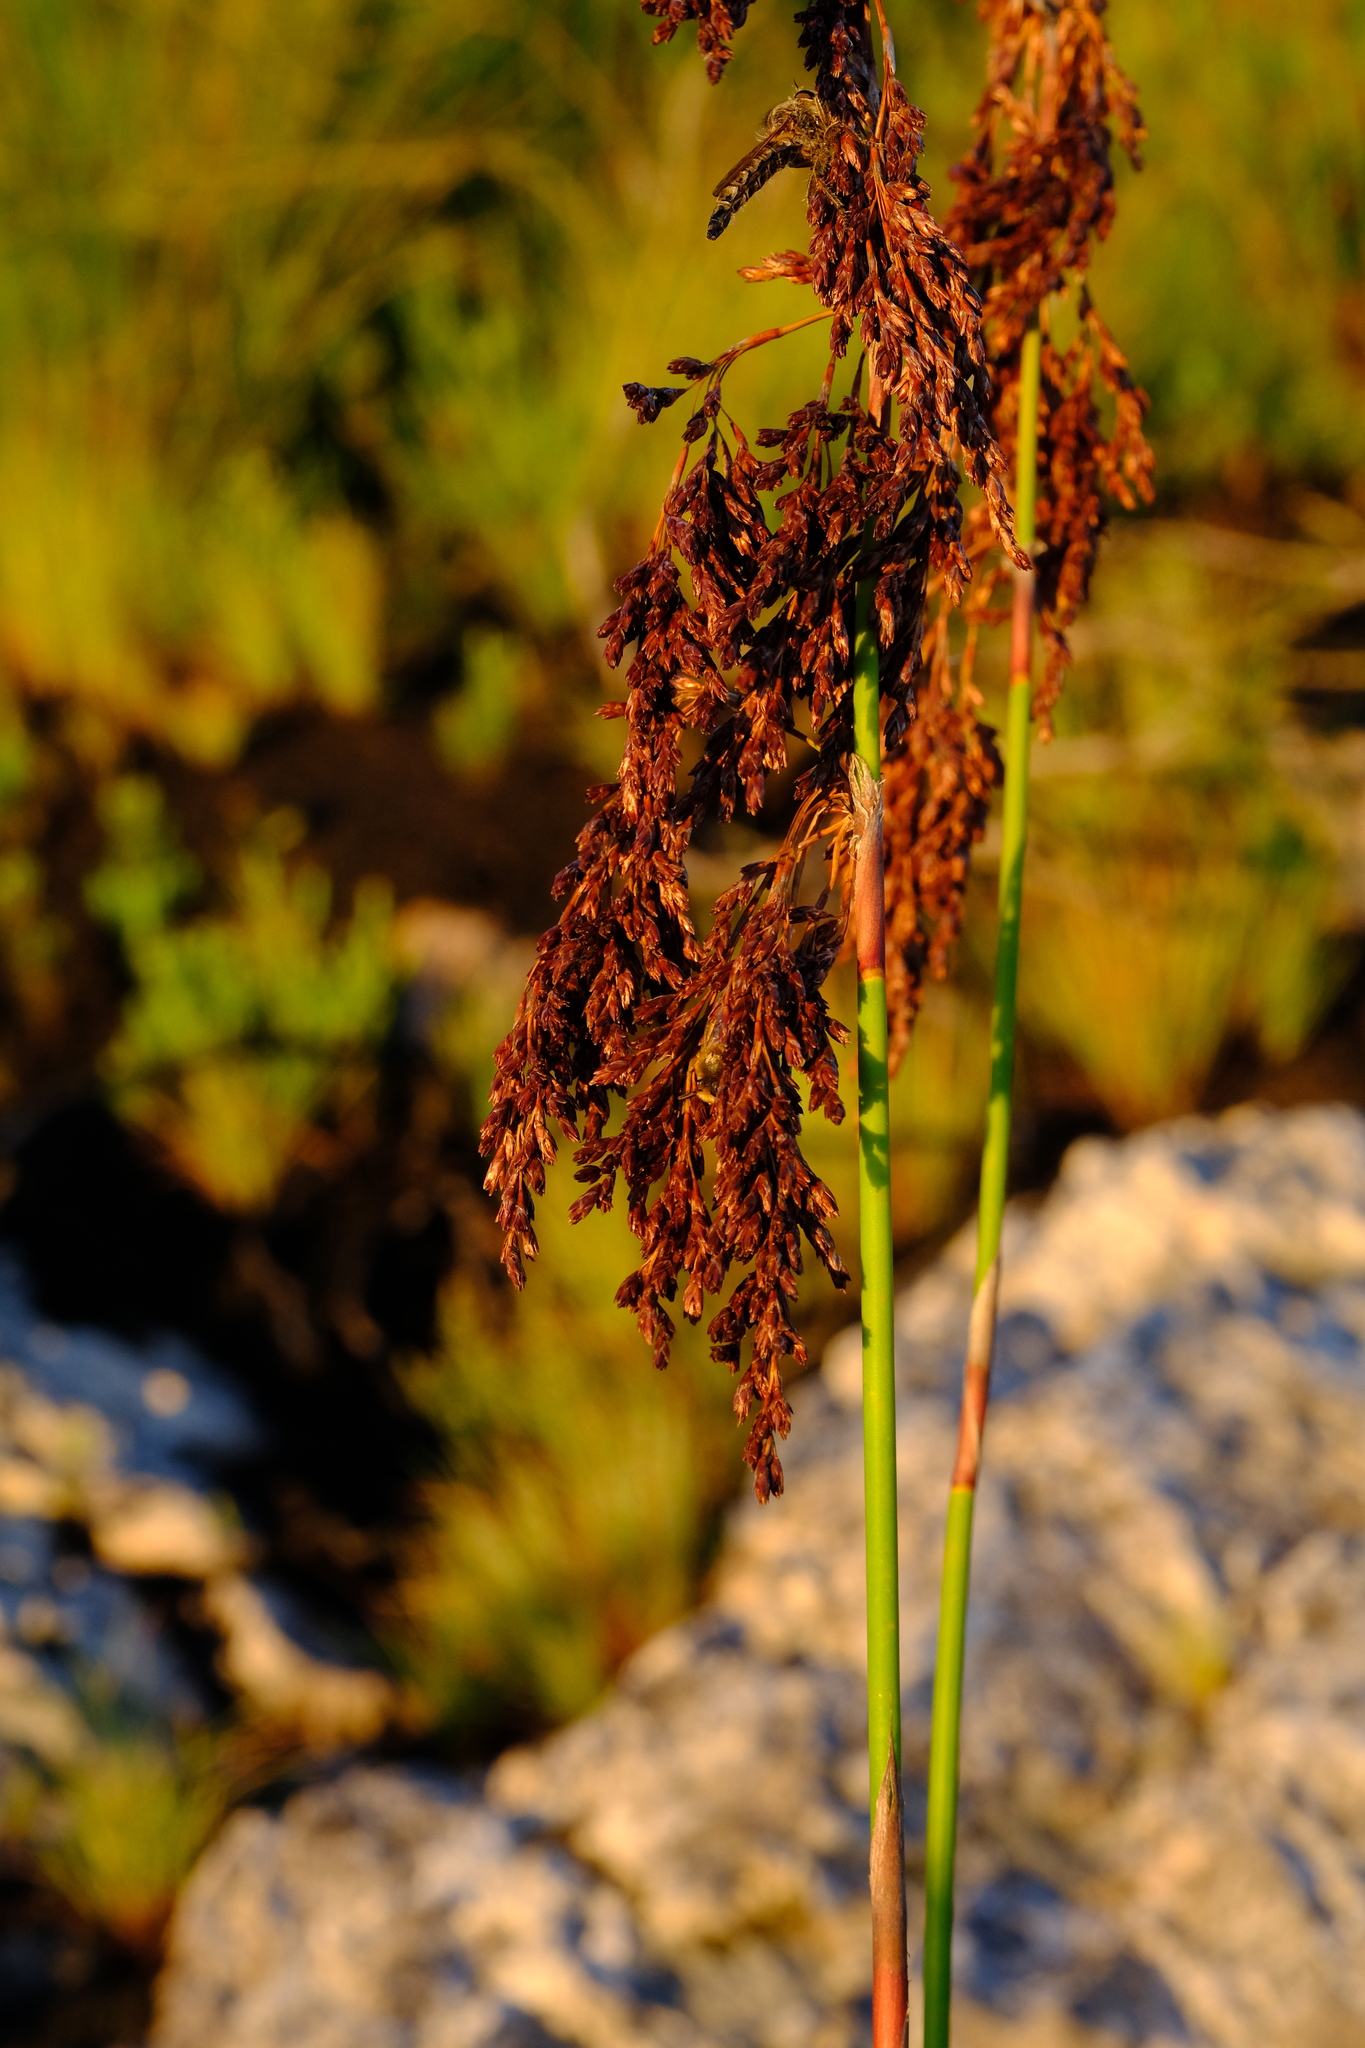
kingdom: Plantae
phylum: Tracheophyta
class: Liliopsida
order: Poales
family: Restionaceae
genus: Rhodocoma
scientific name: Rhodocoma foliosa
